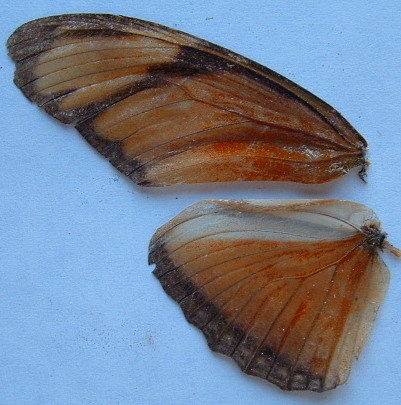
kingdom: Animalia
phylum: Arthropoda
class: Insecta
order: Lepidoptera
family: Nymphalidae
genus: Dryas
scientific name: Dryas iulia
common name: Flambeau
